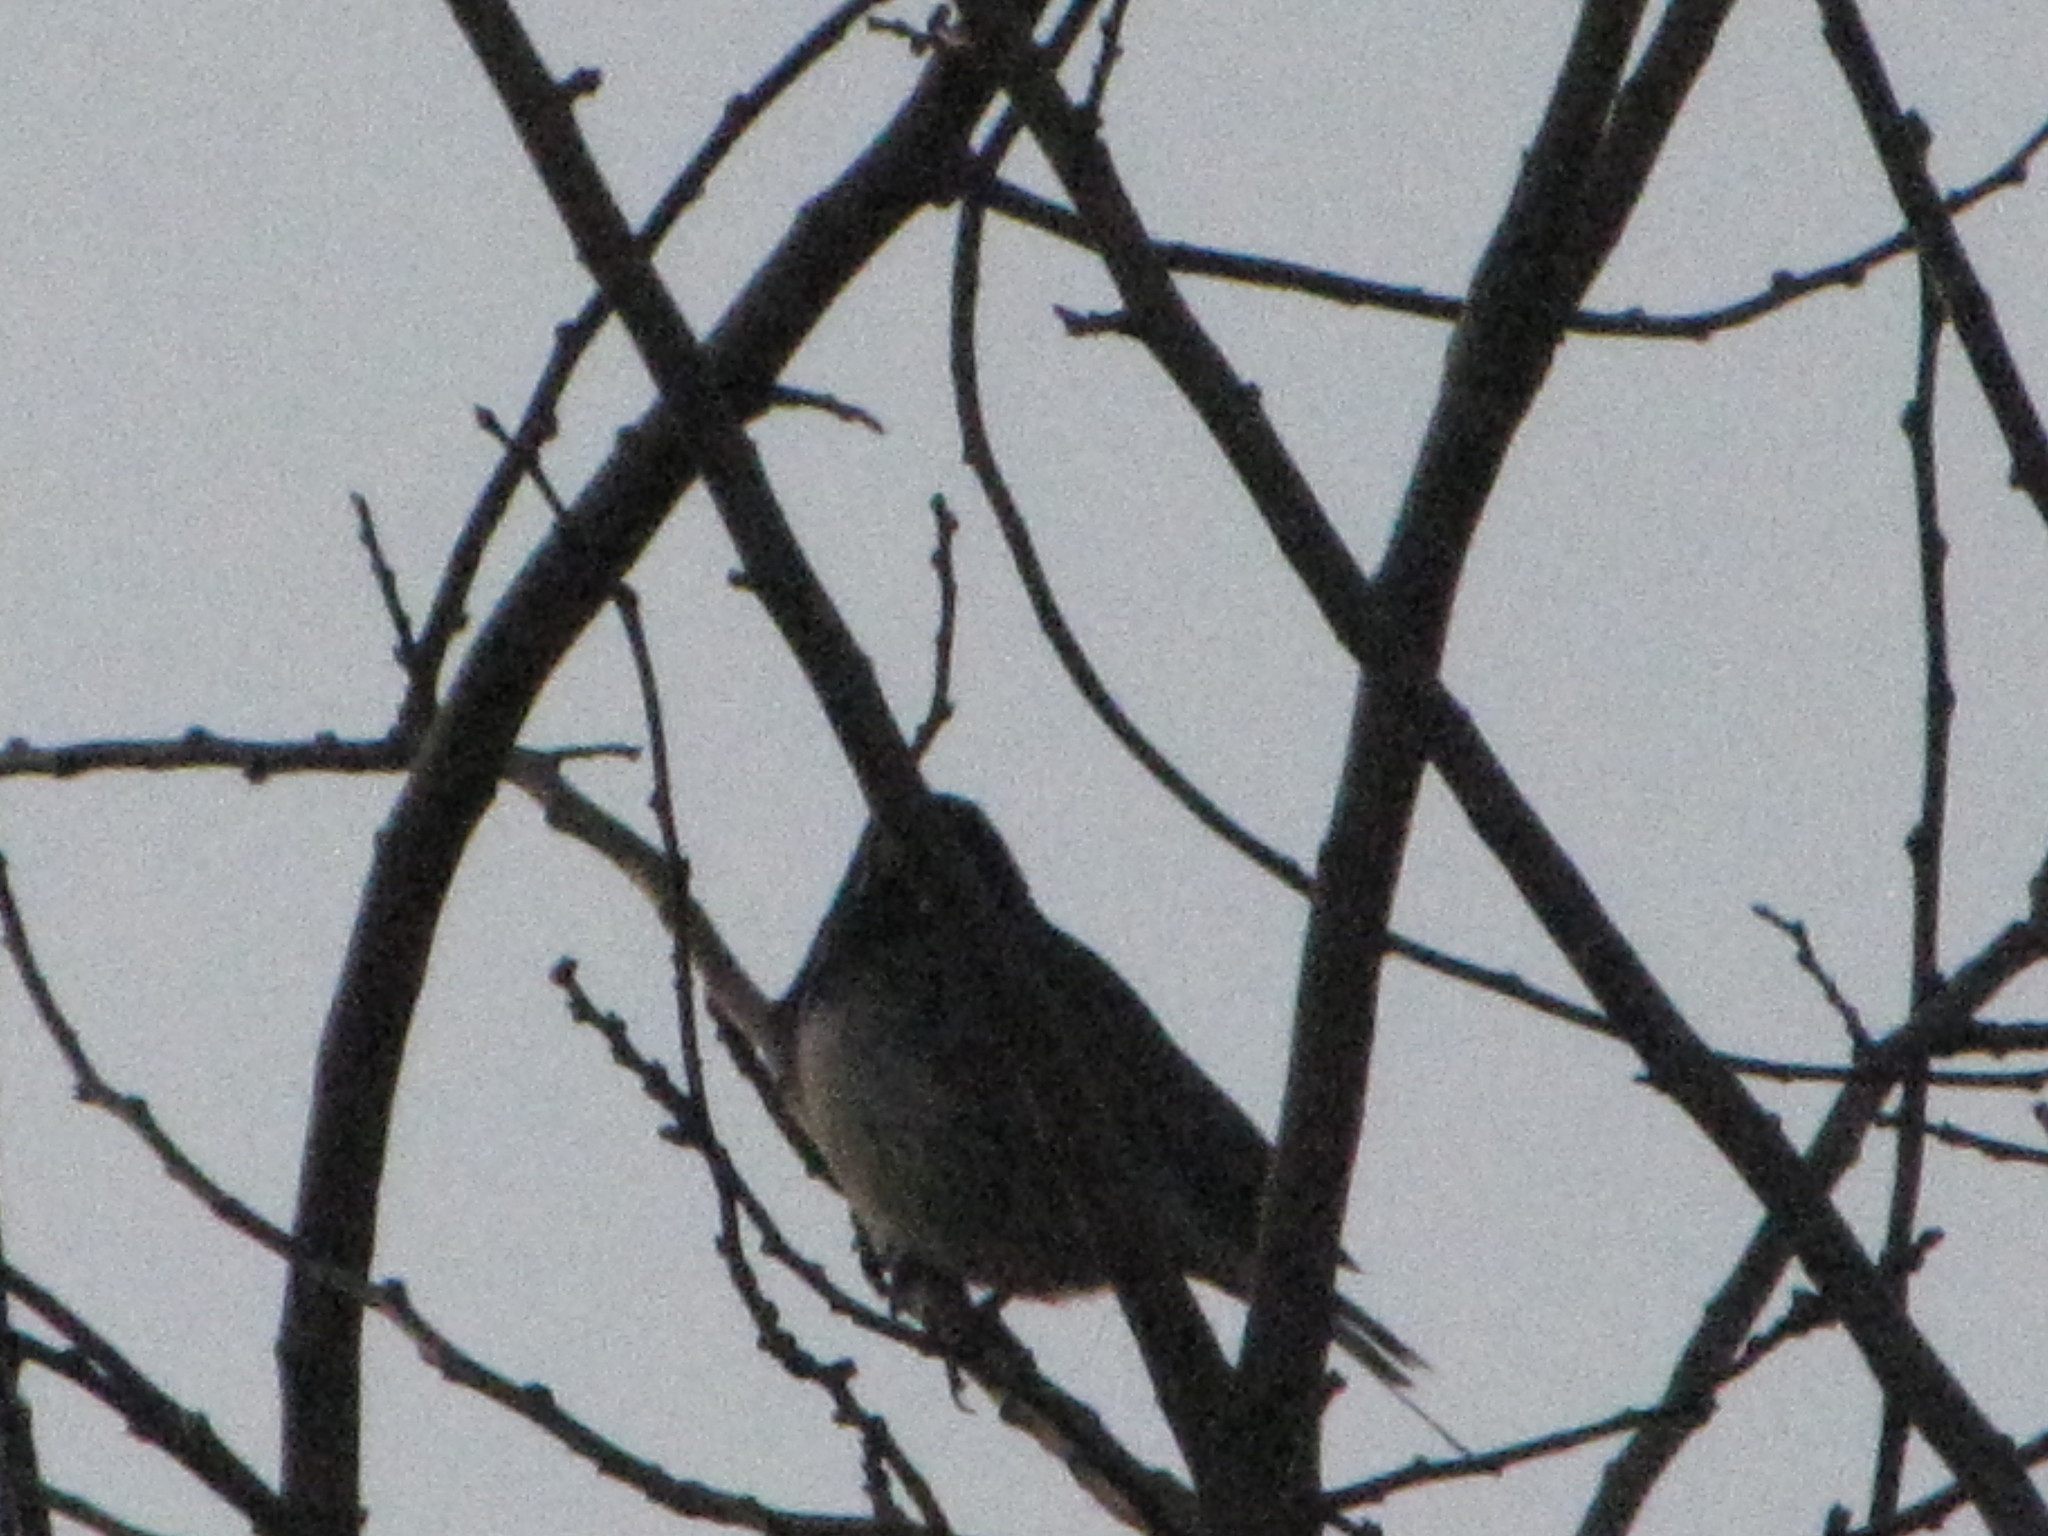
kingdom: Animalia
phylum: Chordata
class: Aves
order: Passeriformes
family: Passerellidae
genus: Junco
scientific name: Junco hyemalis
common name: Dark-eyed junco
